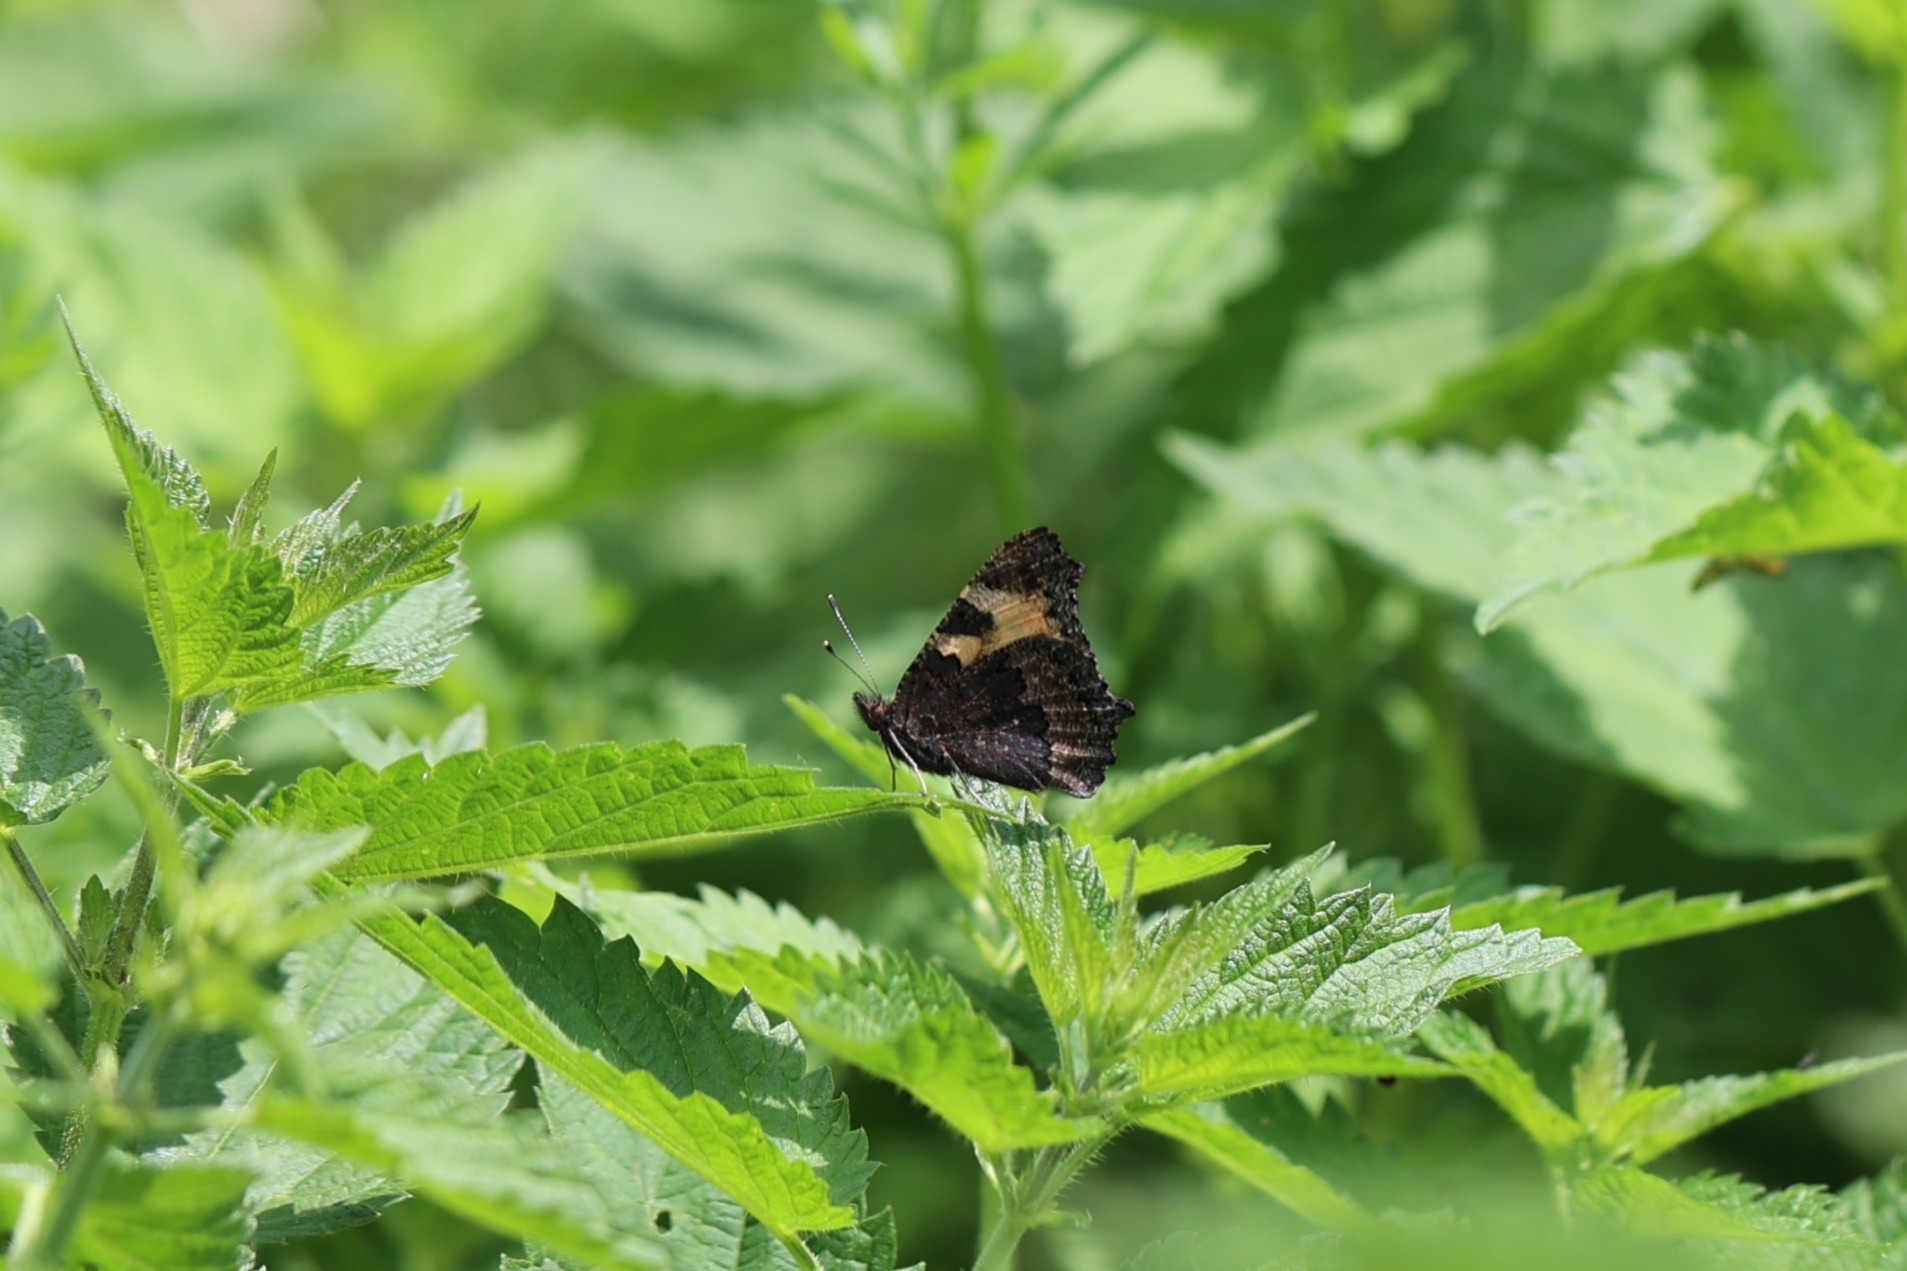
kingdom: Animalia
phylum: Arthropoda
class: Insecta
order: Lepidoptera
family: Nymphalidae
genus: Aglais
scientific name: Aglais urticae
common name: Small tortoiseshell
